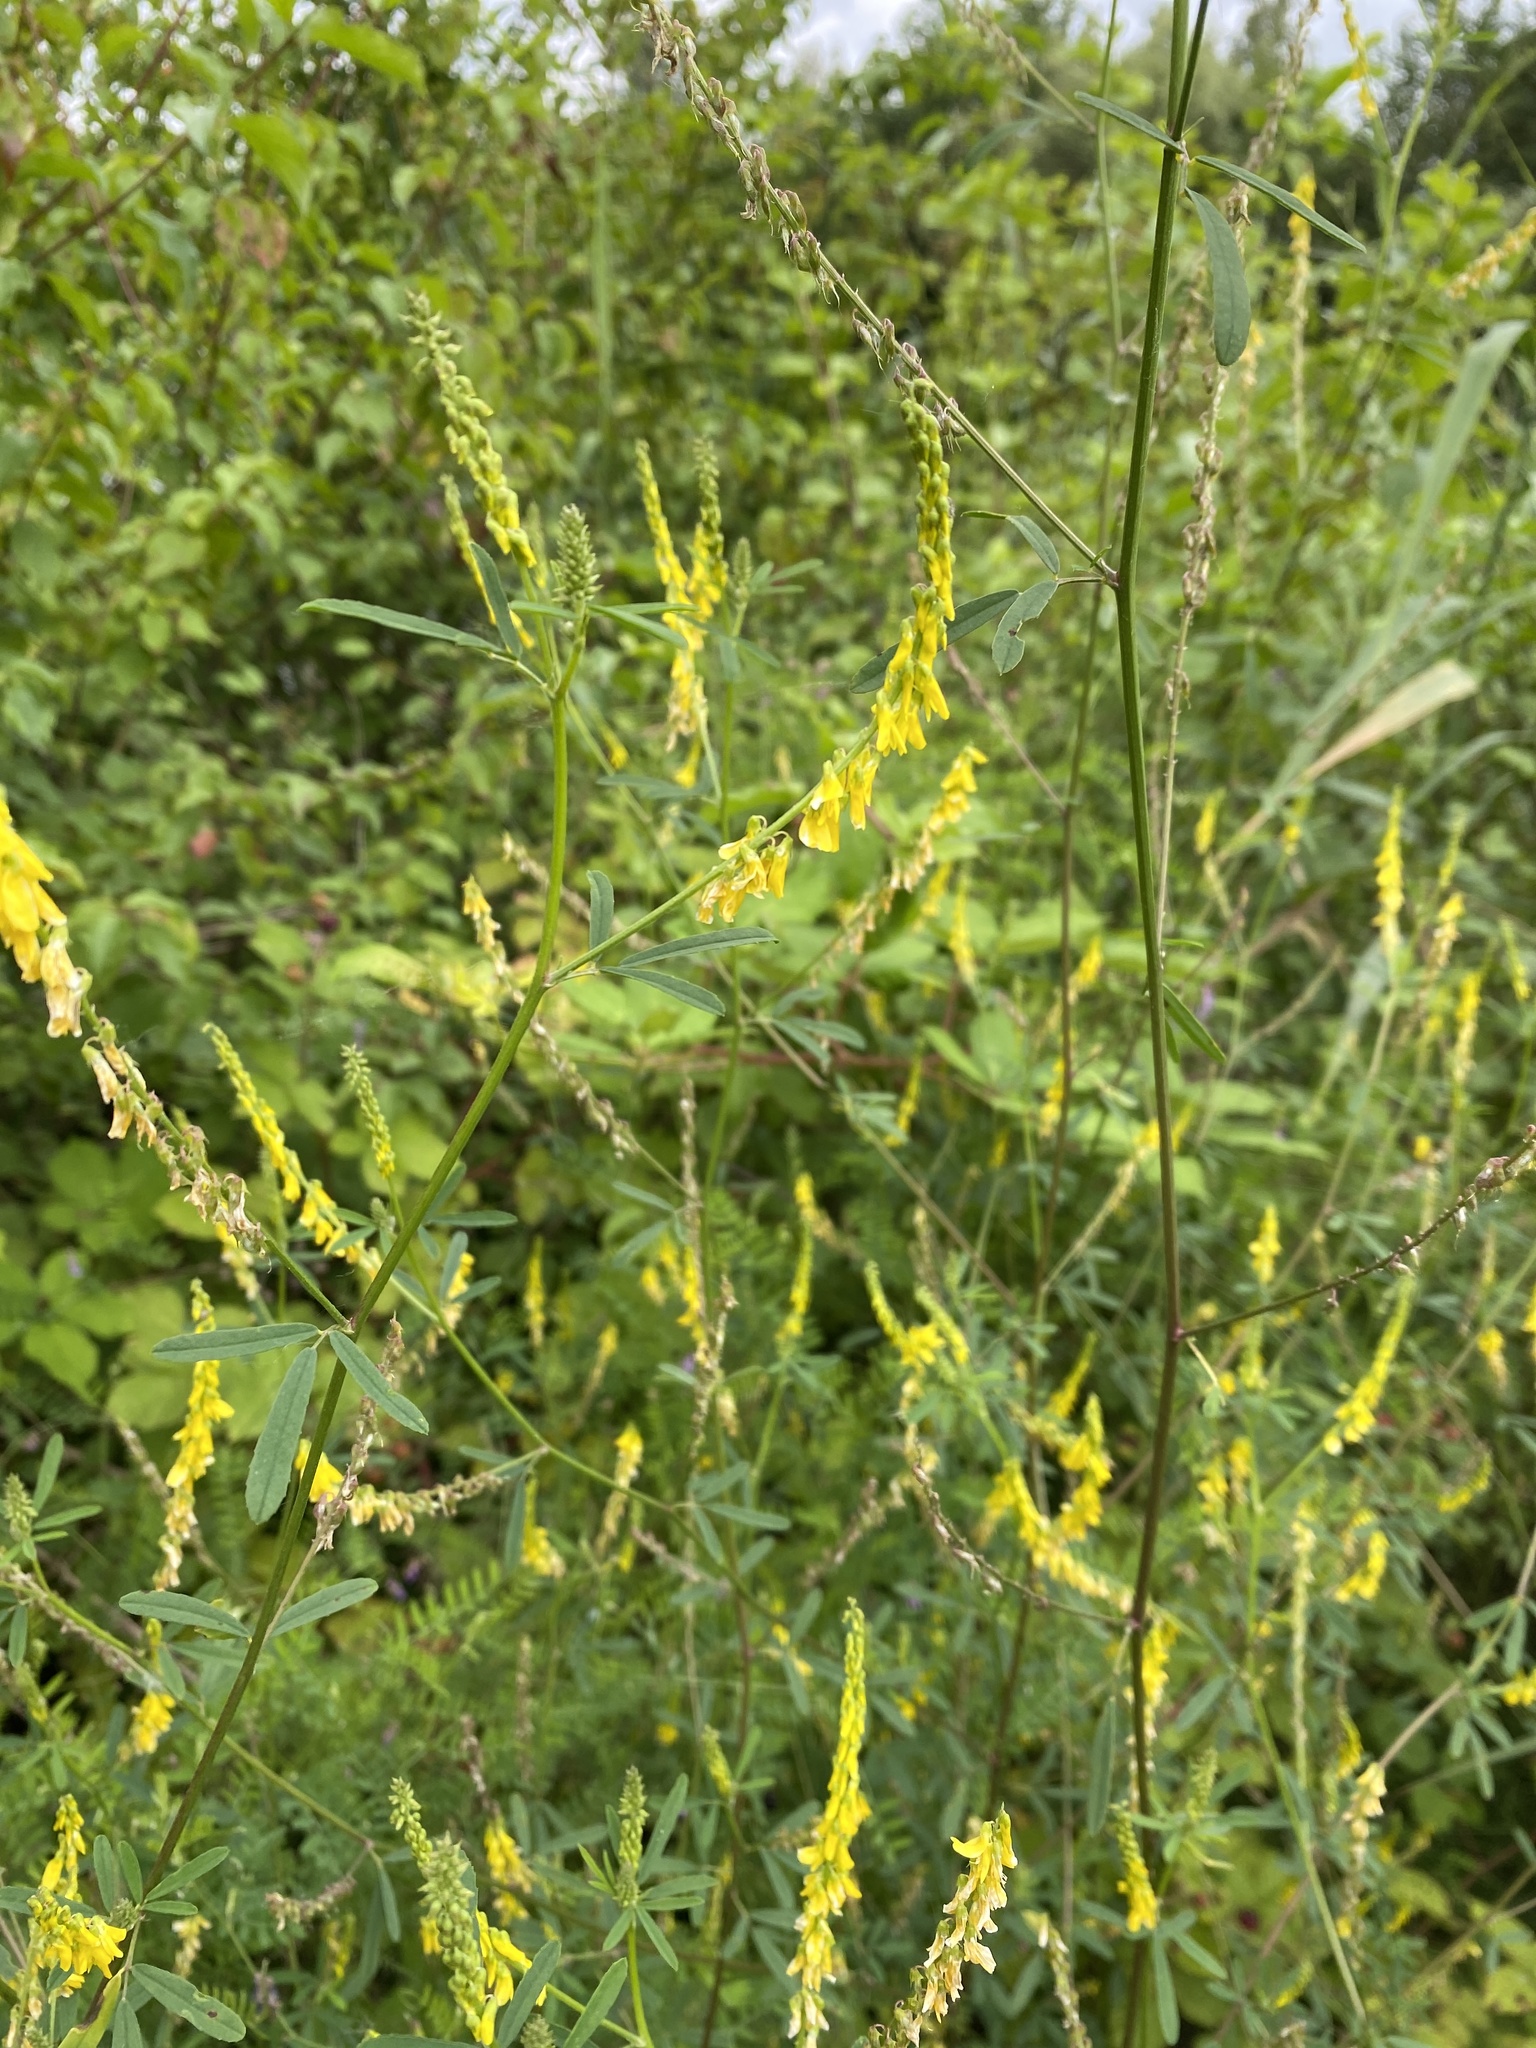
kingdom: Plantae
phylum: Tracheophyta
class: Magnoliopsida
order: Fabales
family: Fabaceae
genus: Melilotus
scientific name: Melilotus officinalis
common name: Sweetclover
